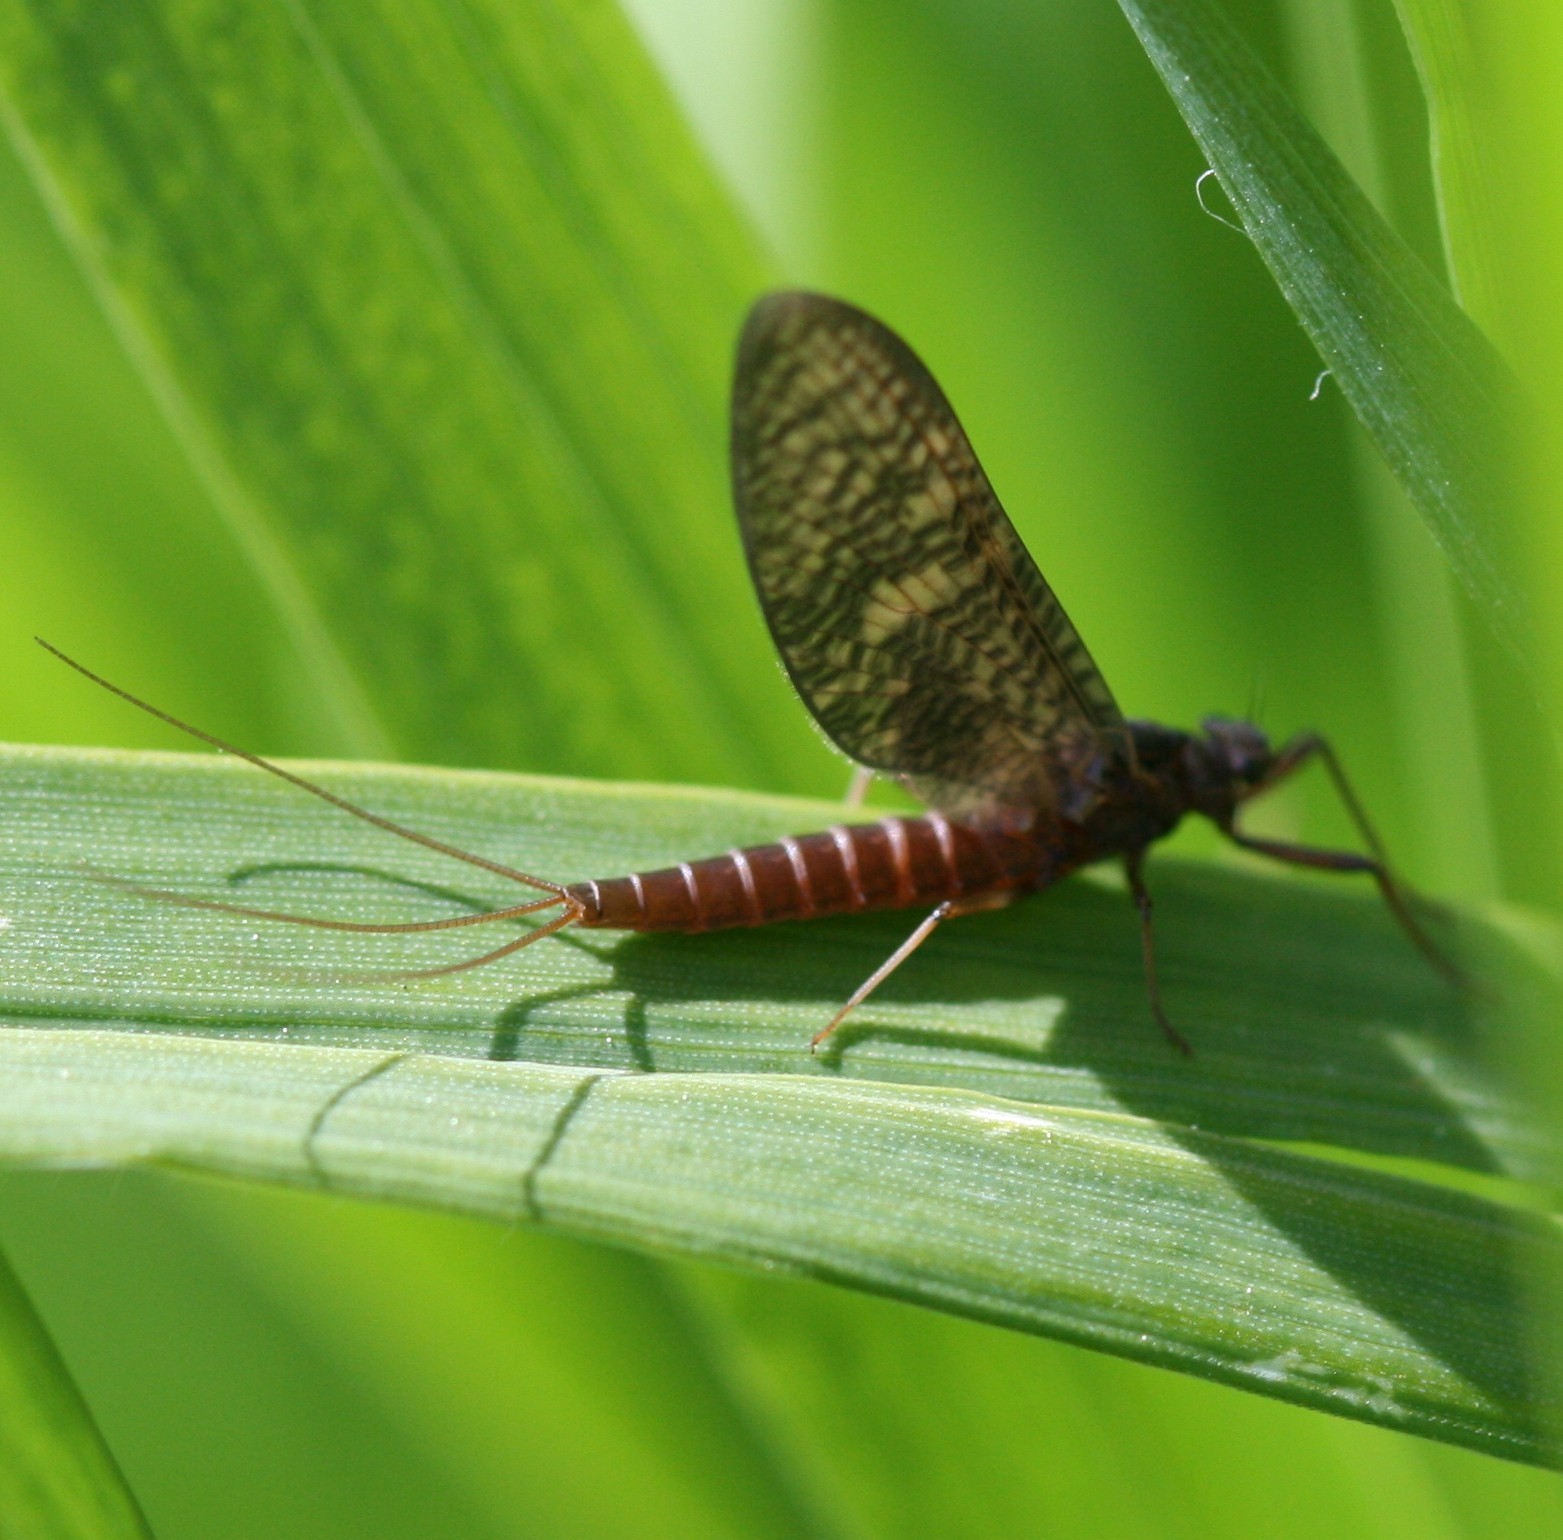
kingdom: Animalia
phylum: Arthropoda
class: Insecta
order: Ephemeroptera
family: Leptophlebiidae
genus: Paraleptophlebia
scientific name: Paraleptophlebia submarginata
